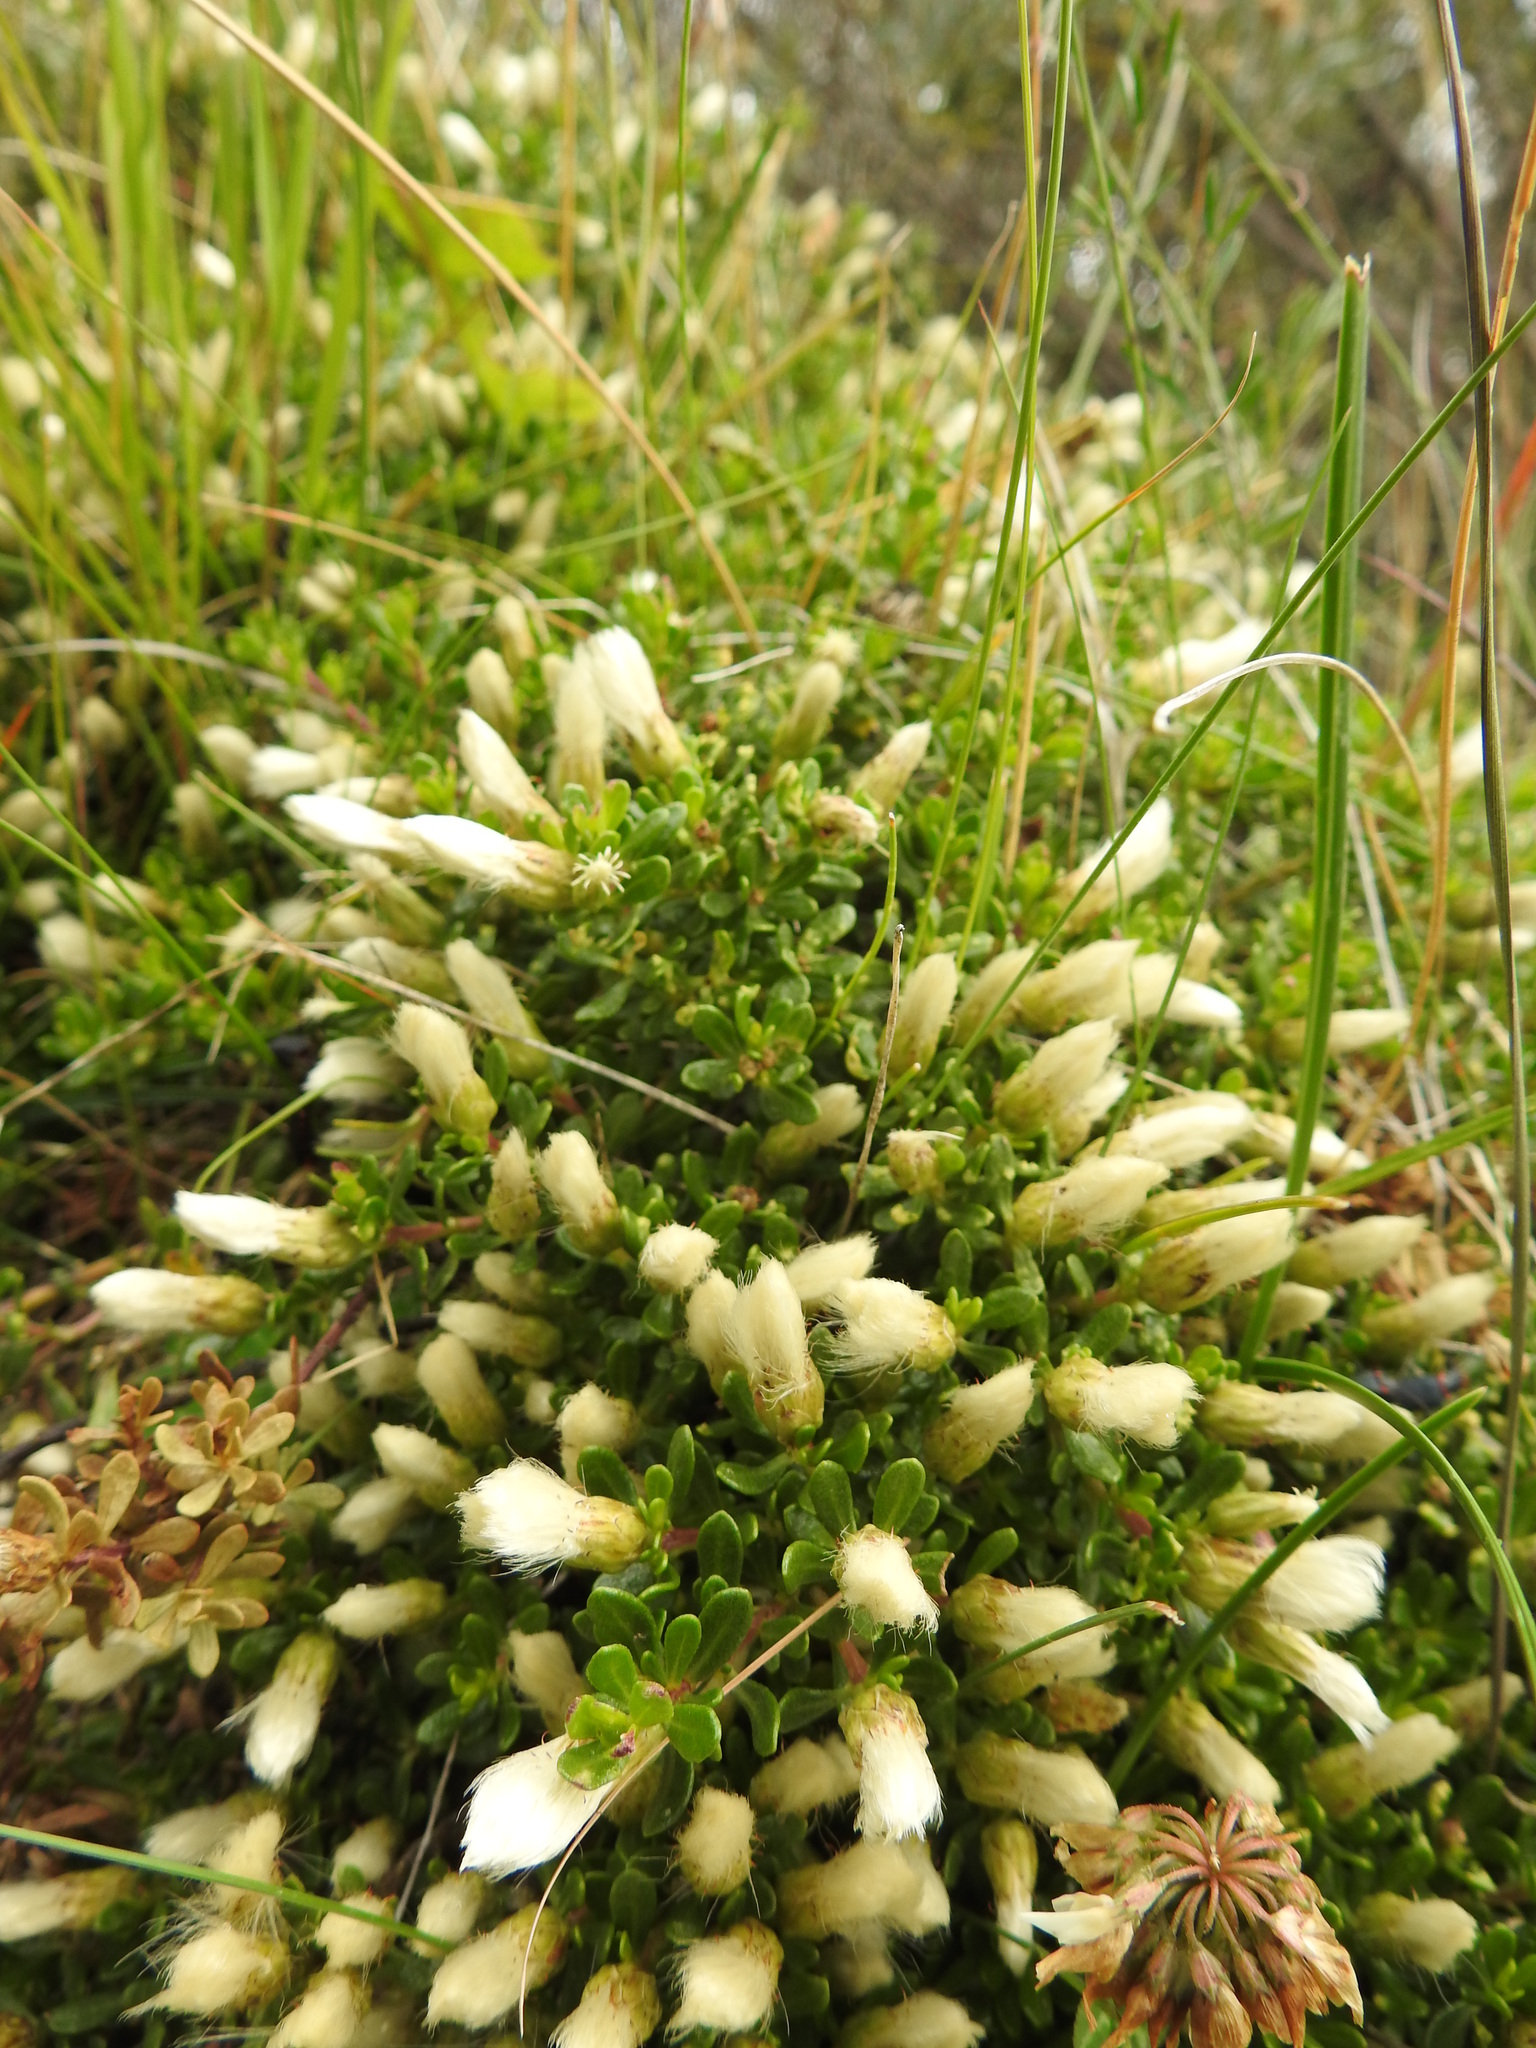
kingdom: Plantae
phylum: Tracheophyta
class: Magnoliopsida
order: Asterales
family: Asteraceae
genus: Baccharis
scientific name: Baccharis magellanica
